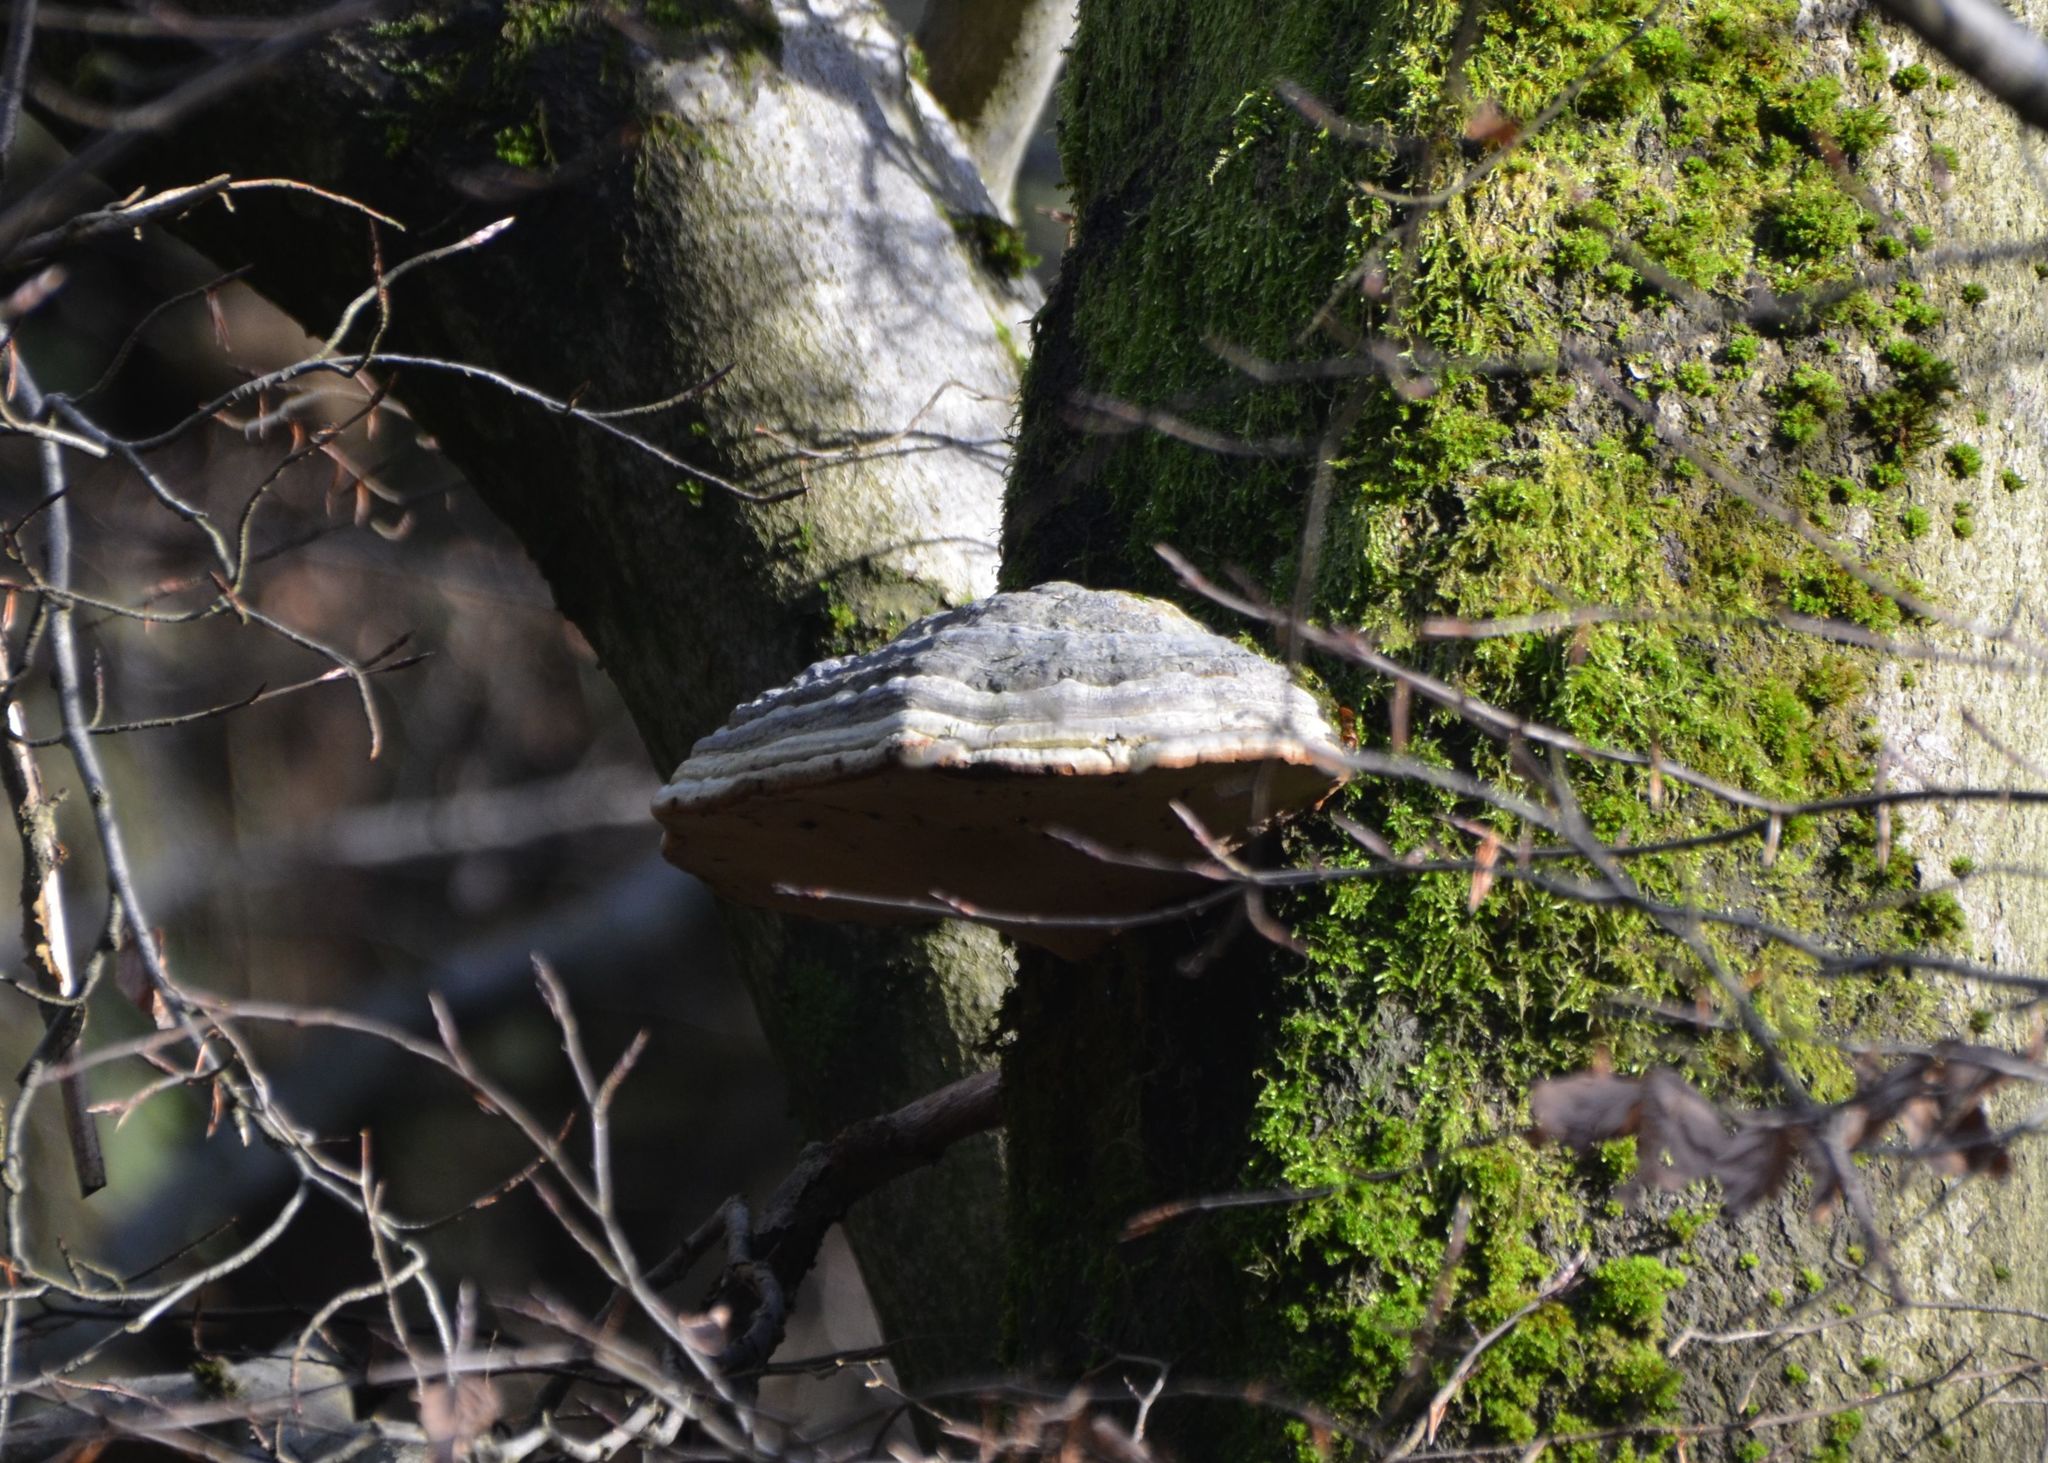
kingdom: Fungi
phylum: Basidiomycota
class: Agaricomycetes
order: Polyporales
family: Polyporaceae
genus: Fomes
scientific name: Fomes fomentarius
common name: Hoof fungus
